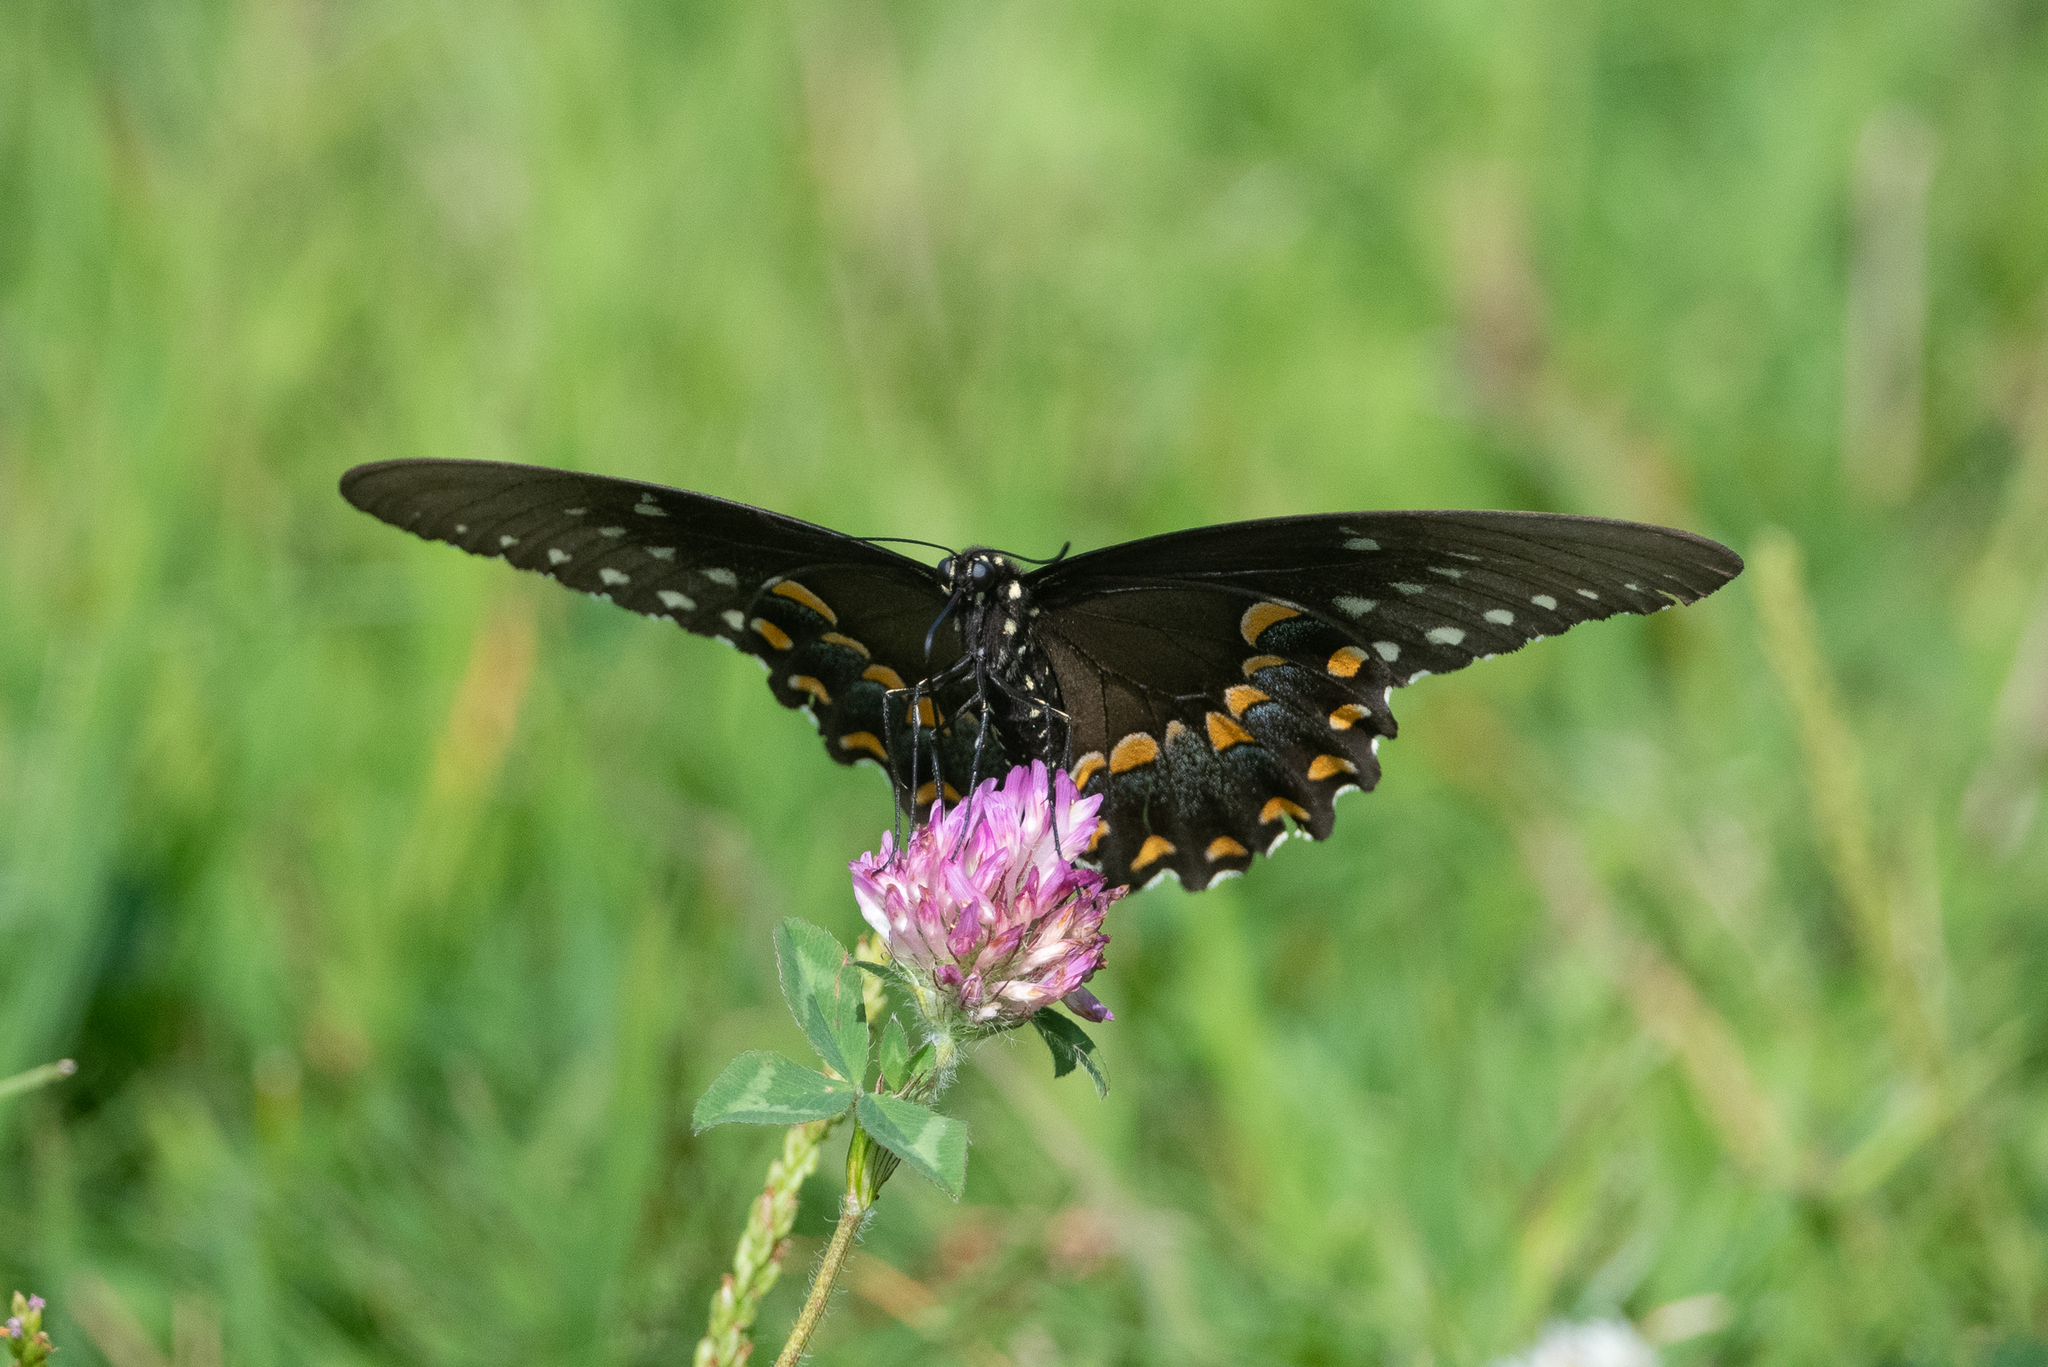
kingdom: Animalia
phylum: Arthropoda
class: Insecta
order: Lepidoptera
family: Papilionidae
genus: Papilio
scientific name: Papilio troilus
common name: Spicebush swallowtail
